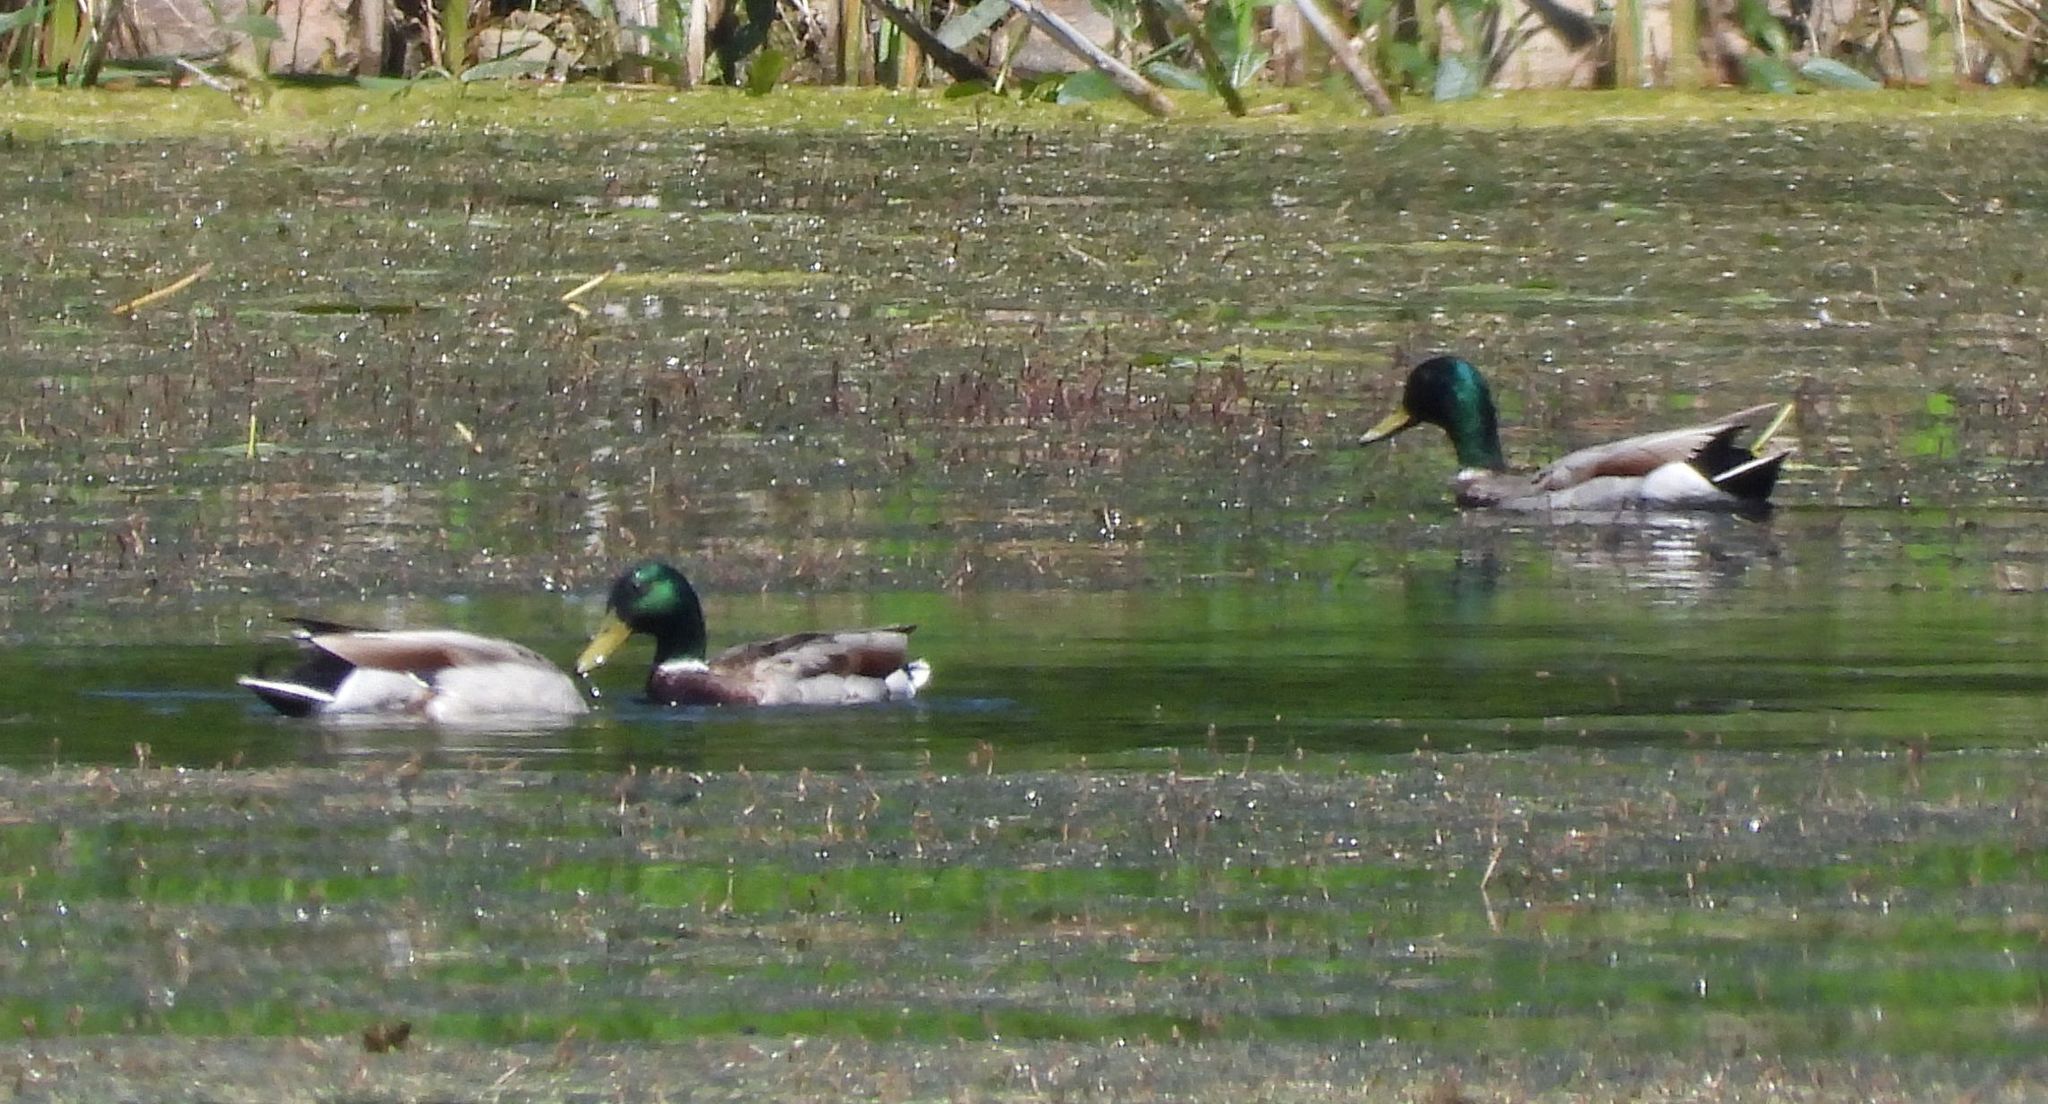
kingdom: Animalia
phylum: Chordata
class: Aves
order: Anseriformes
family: Anatidae
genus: Anas
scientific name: Anas platyrhynchos
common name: Mallard
